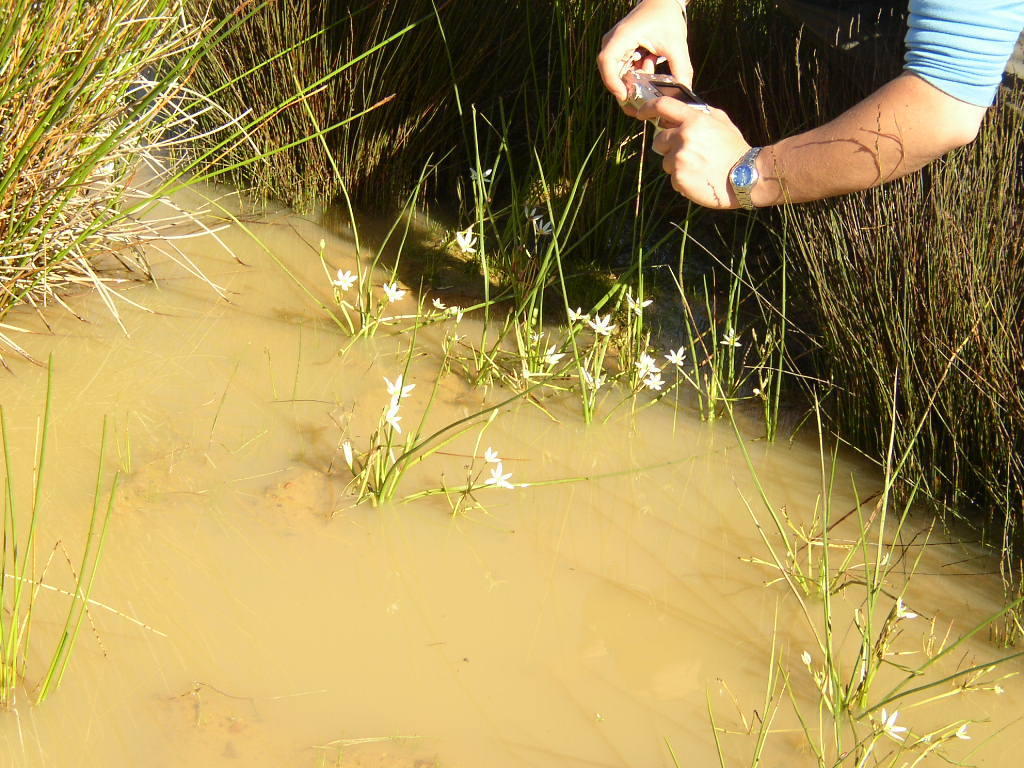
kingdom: Plantae
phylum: Tracheophyta
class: Liliopsida
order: Asparagales
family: Hypoxidaceae
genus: Pauridia
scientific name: Pauridia aquatica
